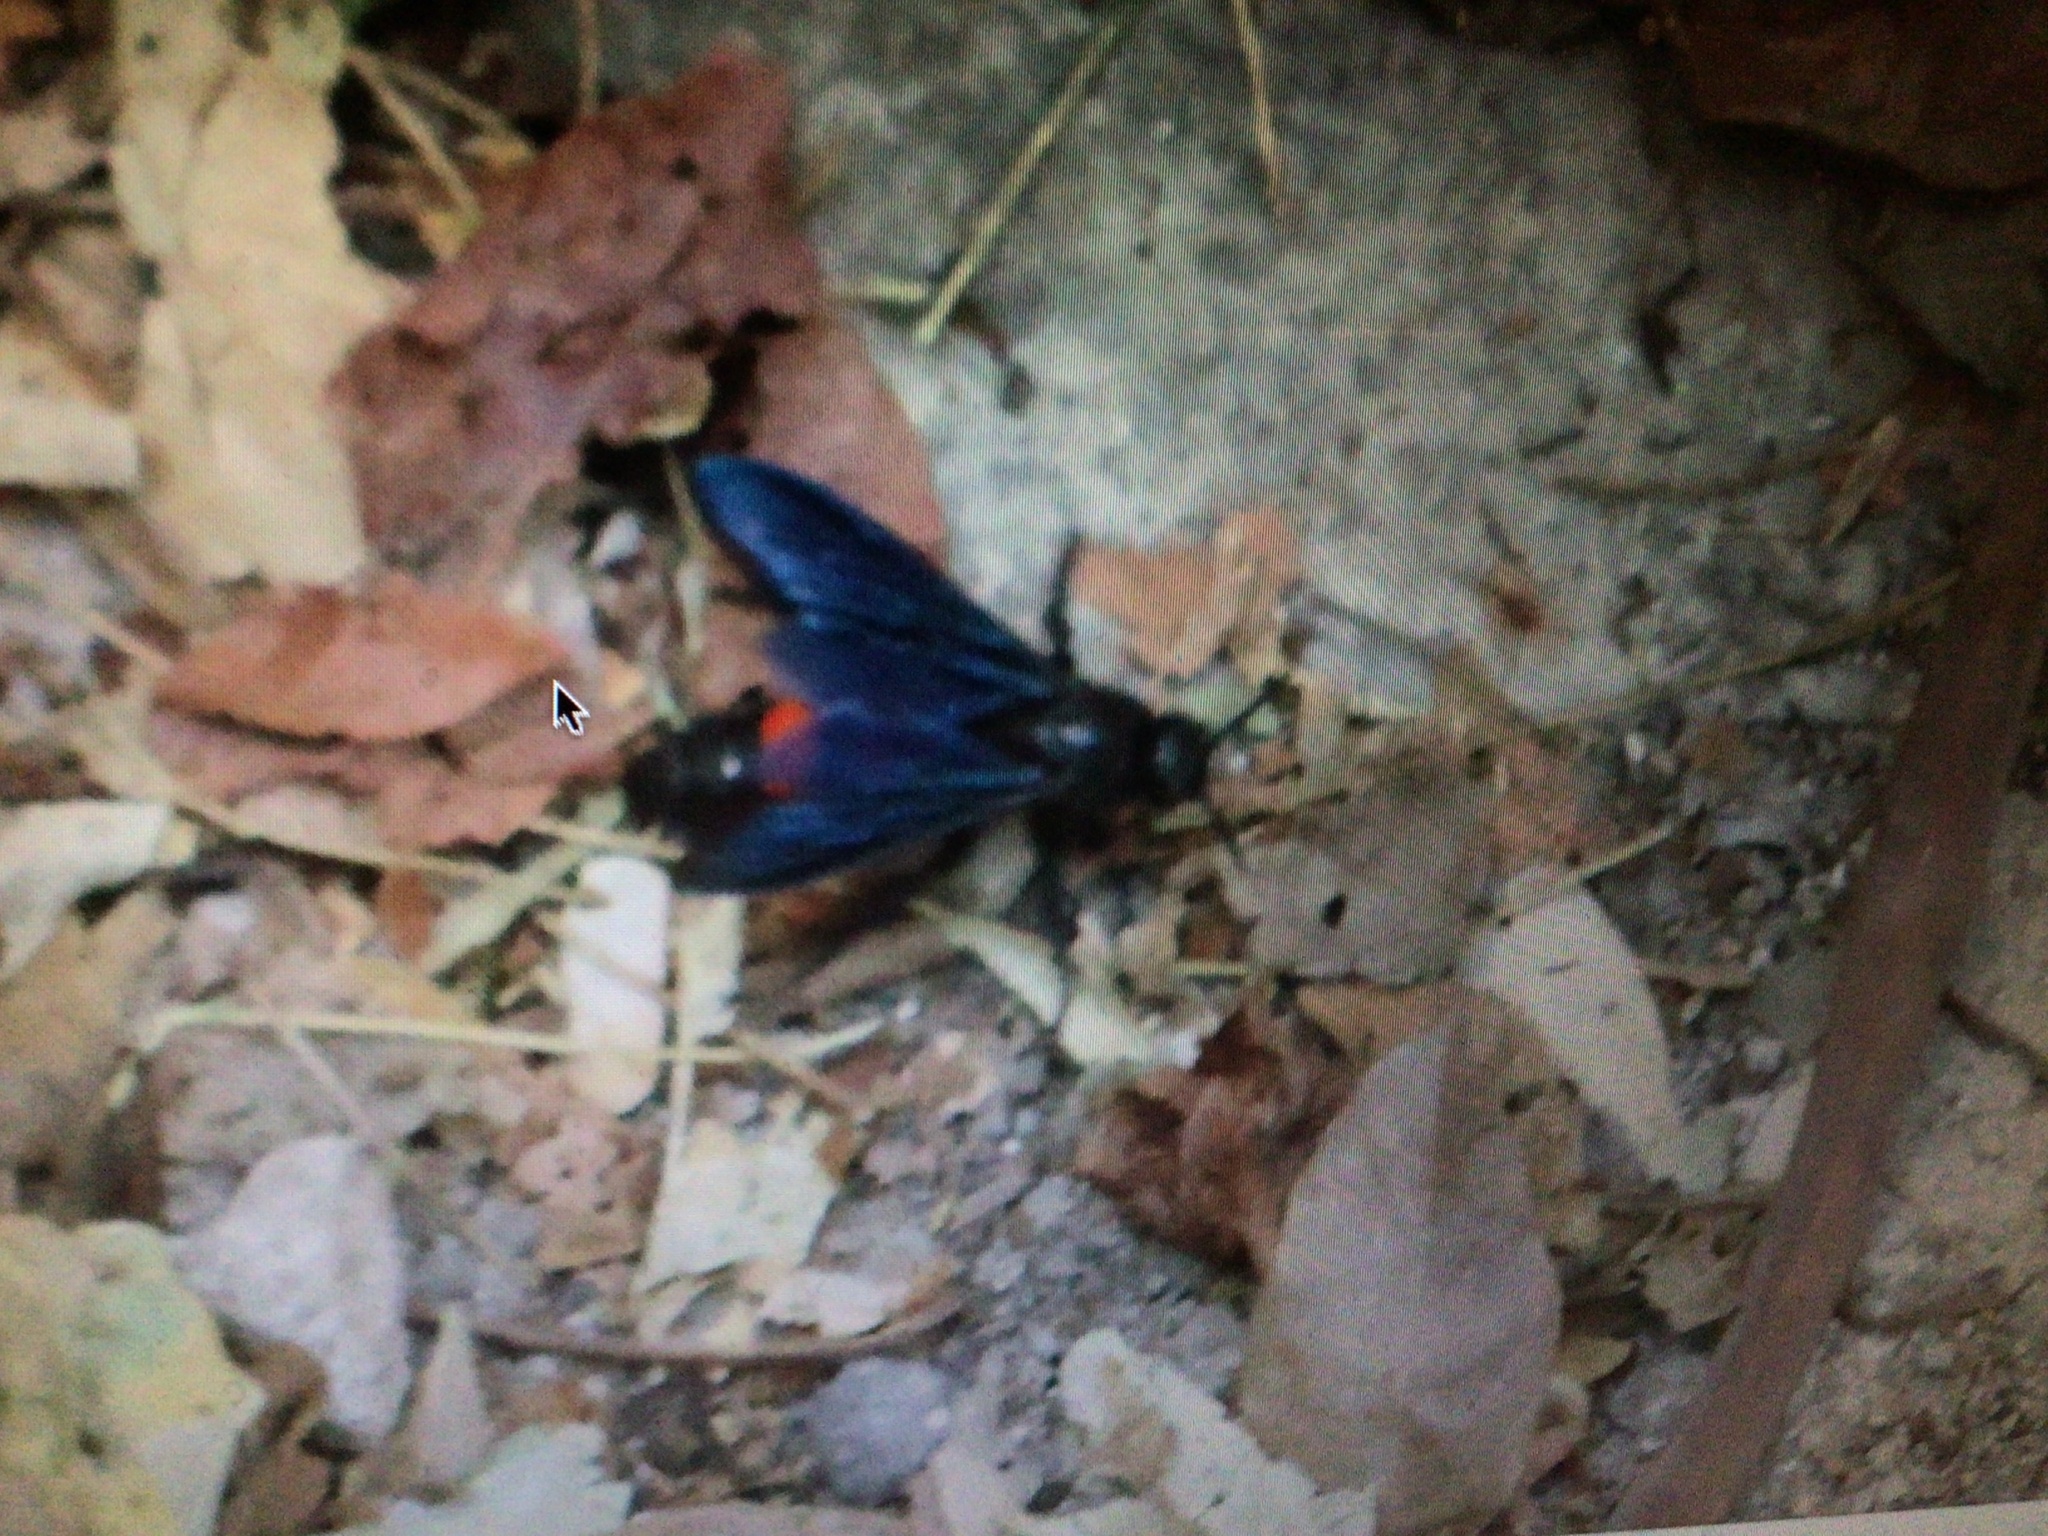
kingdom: Animalia
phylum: Arthropoda
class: Insecta
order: Hymenoptera
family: Scoliidae
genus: Pygodasis
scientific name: Pygodasis ephippium
